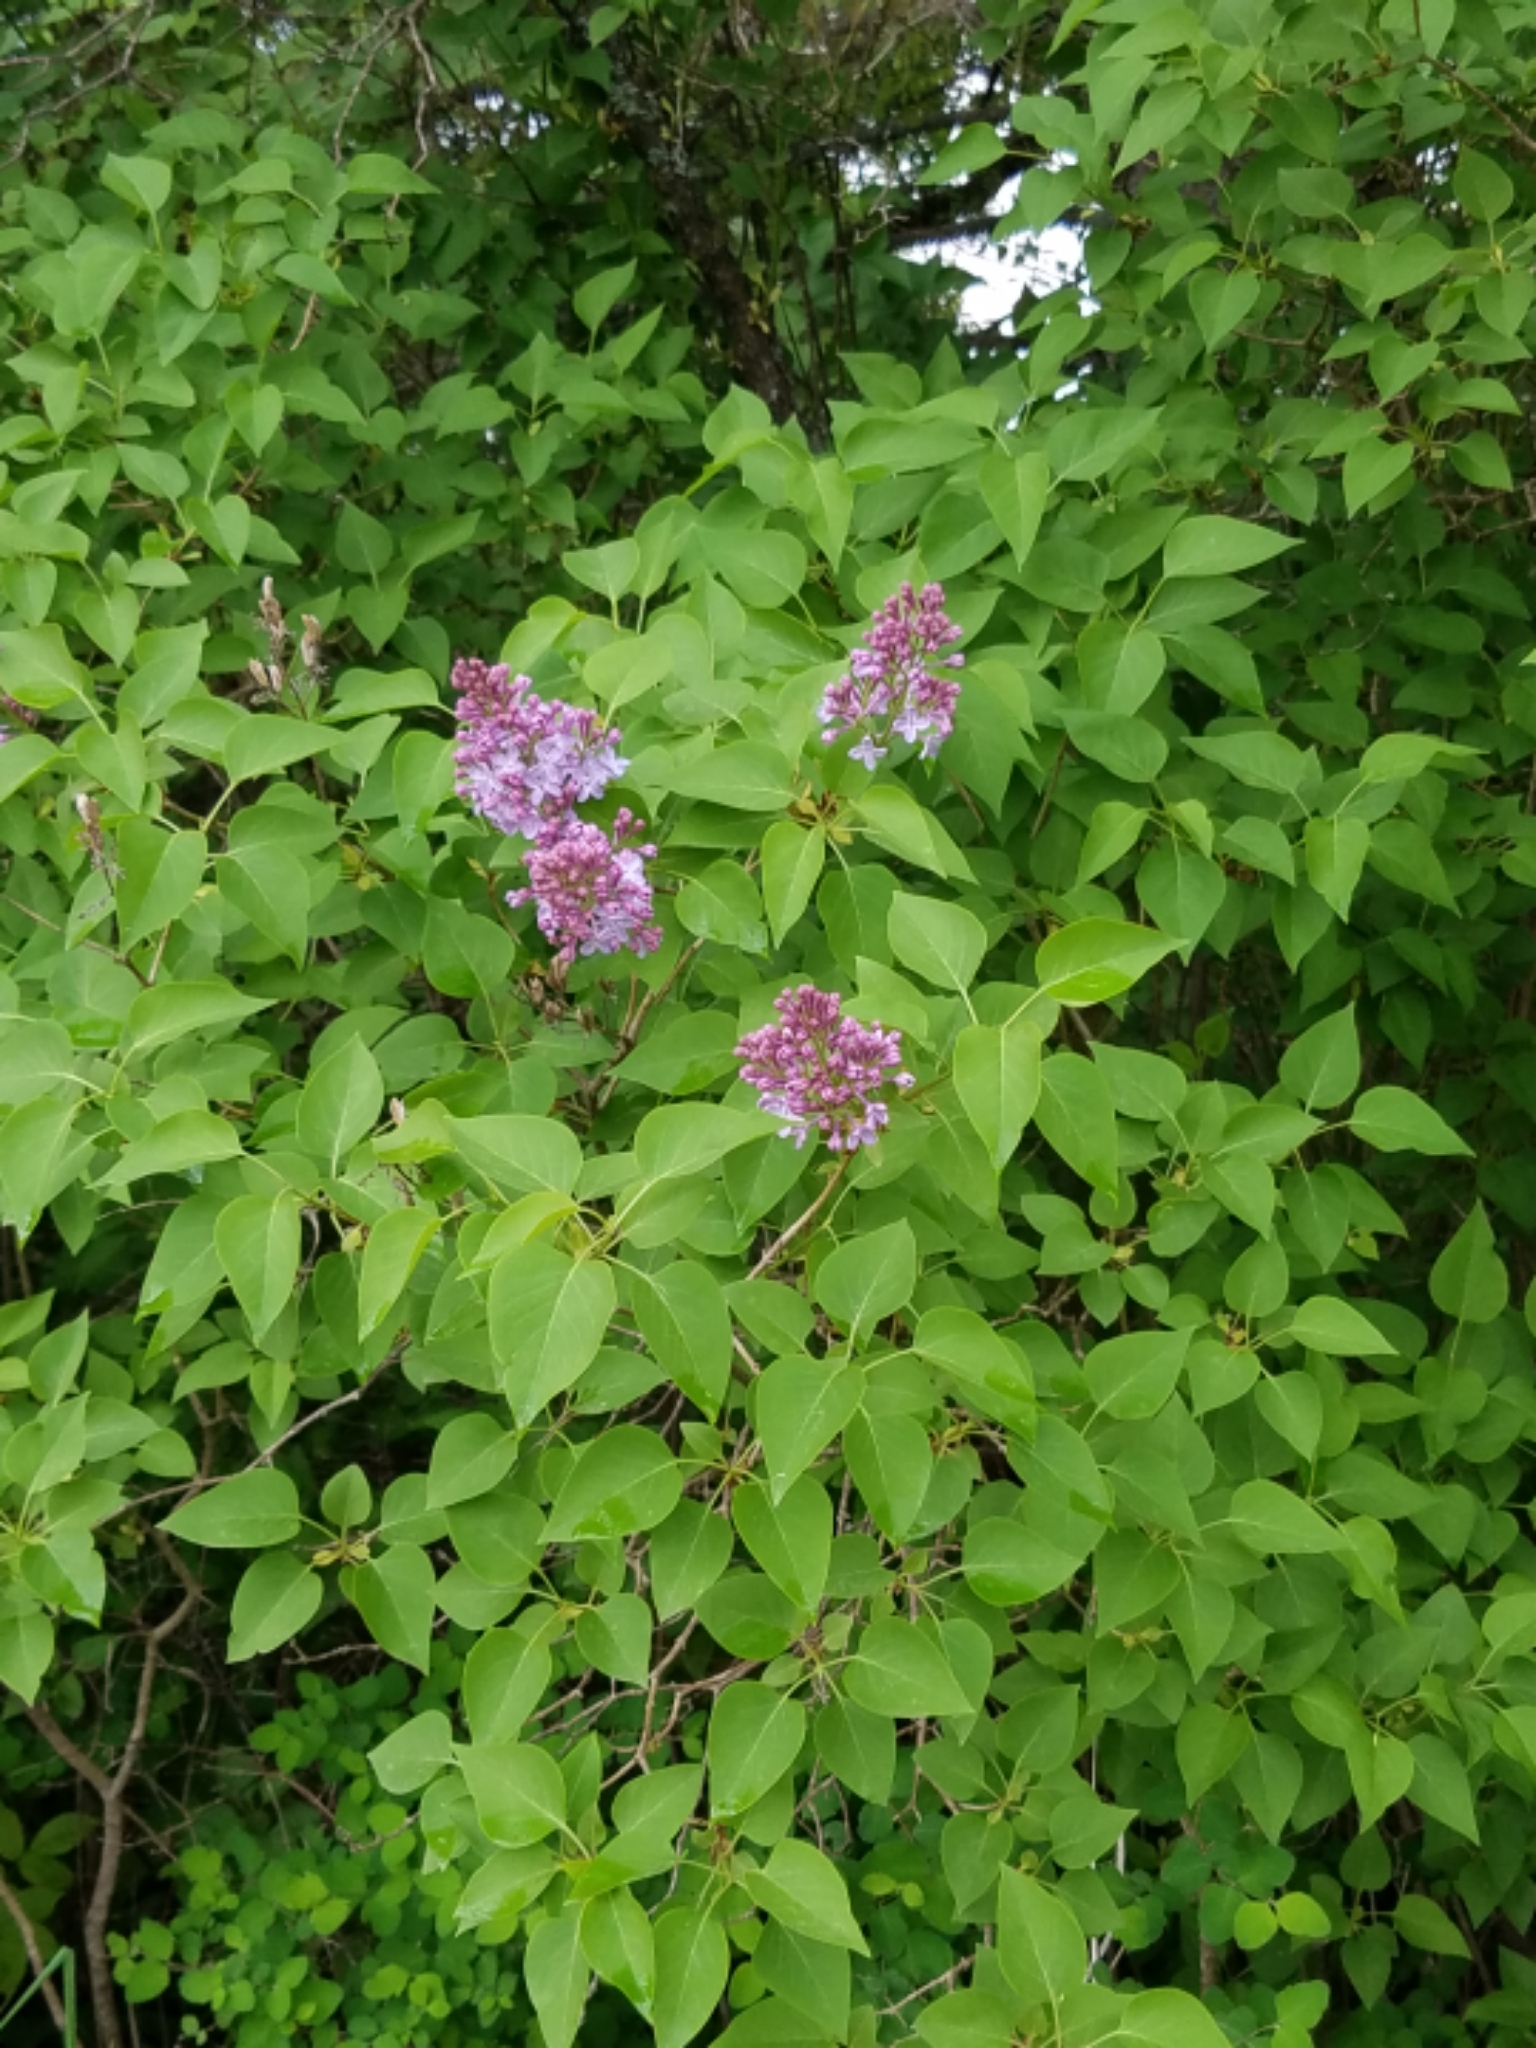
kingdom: Plantae
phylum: Tracheophyta
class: Magnoliopsida
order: Lamiales
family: Oleaceae
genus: Syringa
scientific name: Syringa vulgaris
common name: Common lilac
